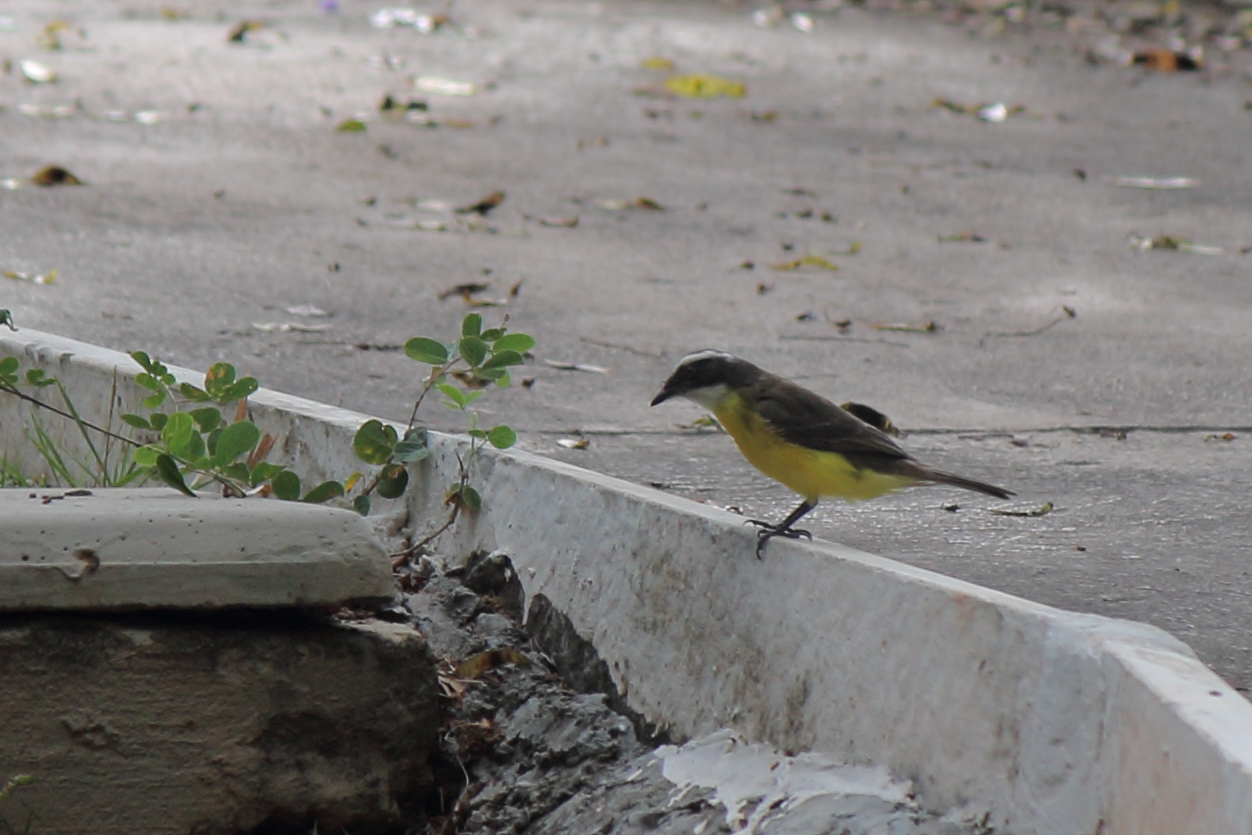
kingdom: Animalia
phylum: Chordata
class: Aves
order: Passeriformes
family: Tyrannidae
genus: Myiozetetes
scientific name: Myiozetetes similis
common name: Social flycatcher
